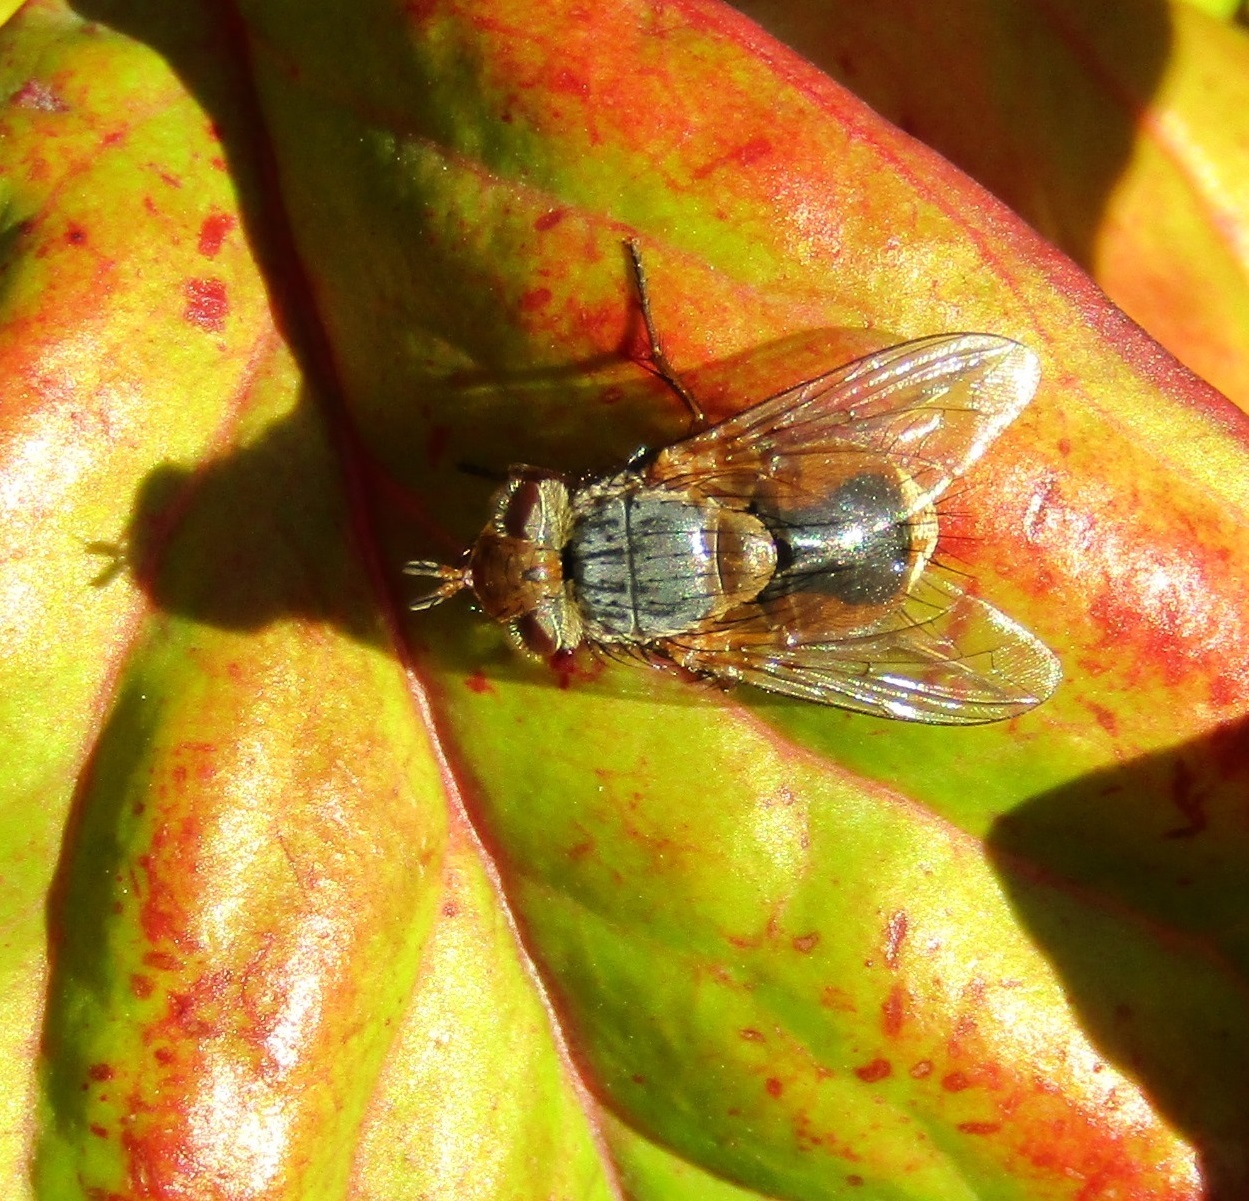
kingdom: Animalia
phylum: Arthropoda
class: Insecta
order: Diptera
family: Tachinidae
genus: Chaetophthalmus
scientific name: Chaetophthalmus bicolor
